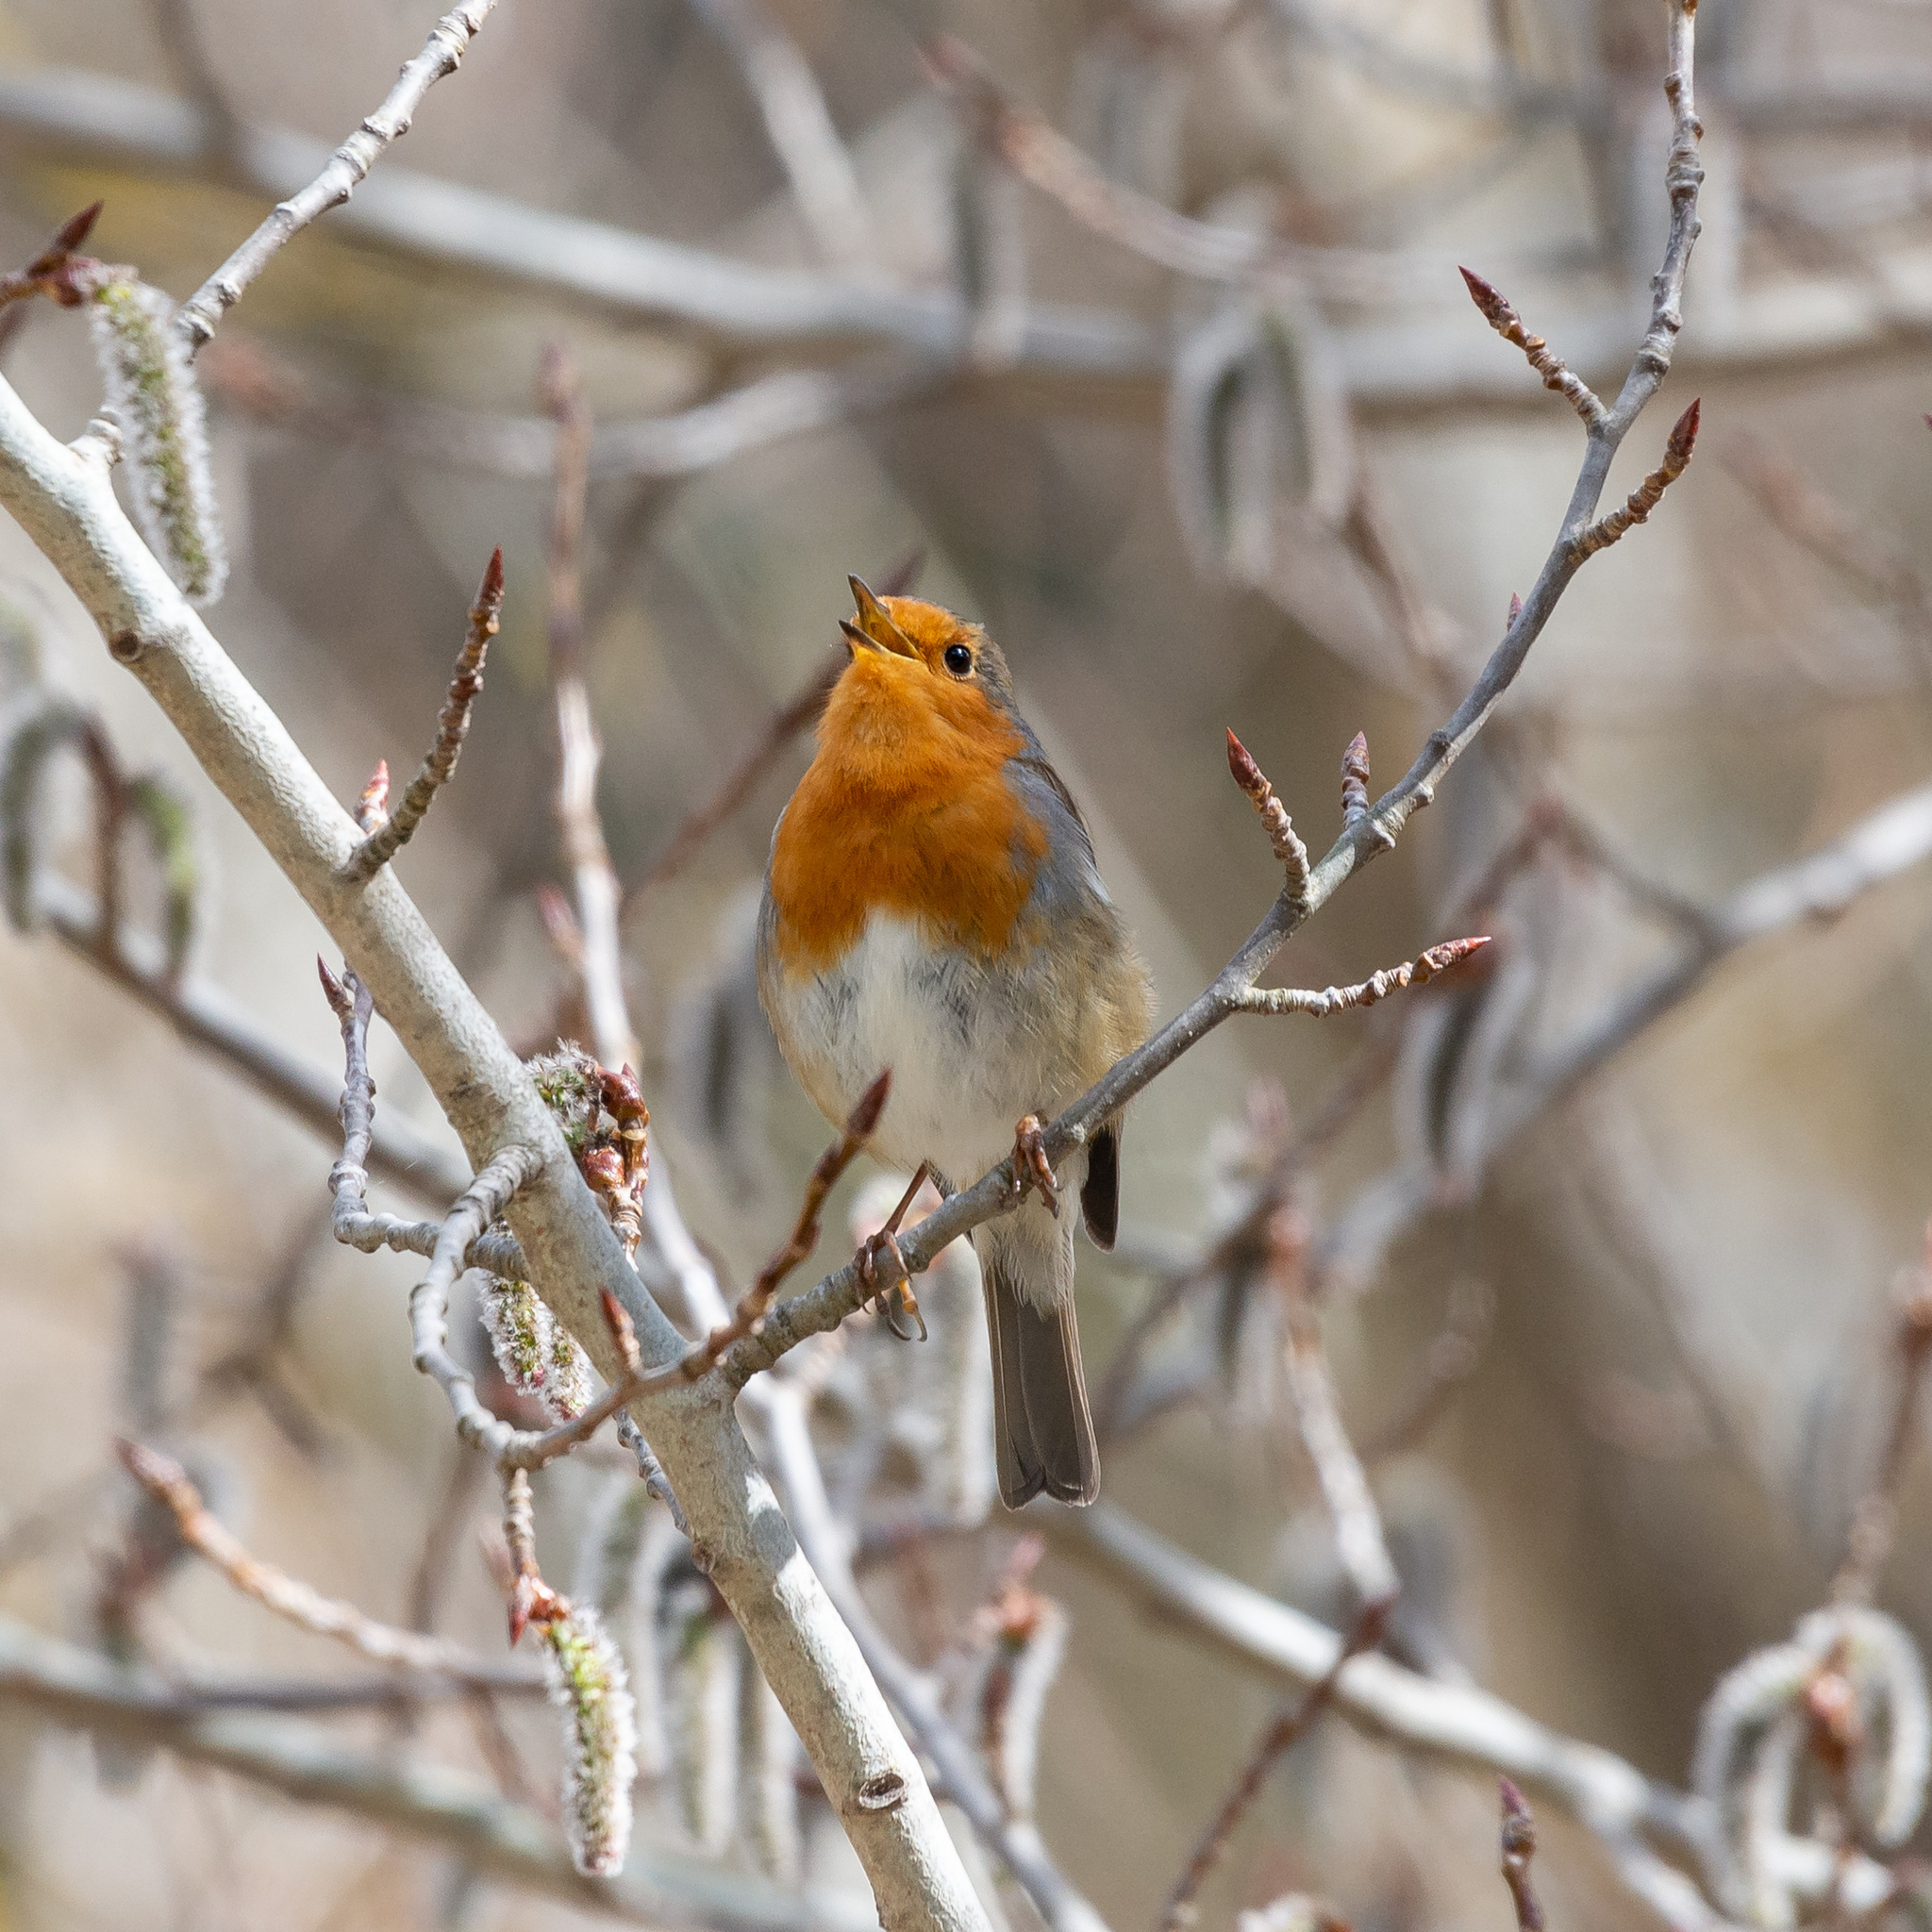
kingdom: Animalia
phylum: Chordata
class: Aves
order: Passeriformes
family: Muscicapidae
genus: Erithacus
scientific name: Erithacus rubecula
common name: European robin
